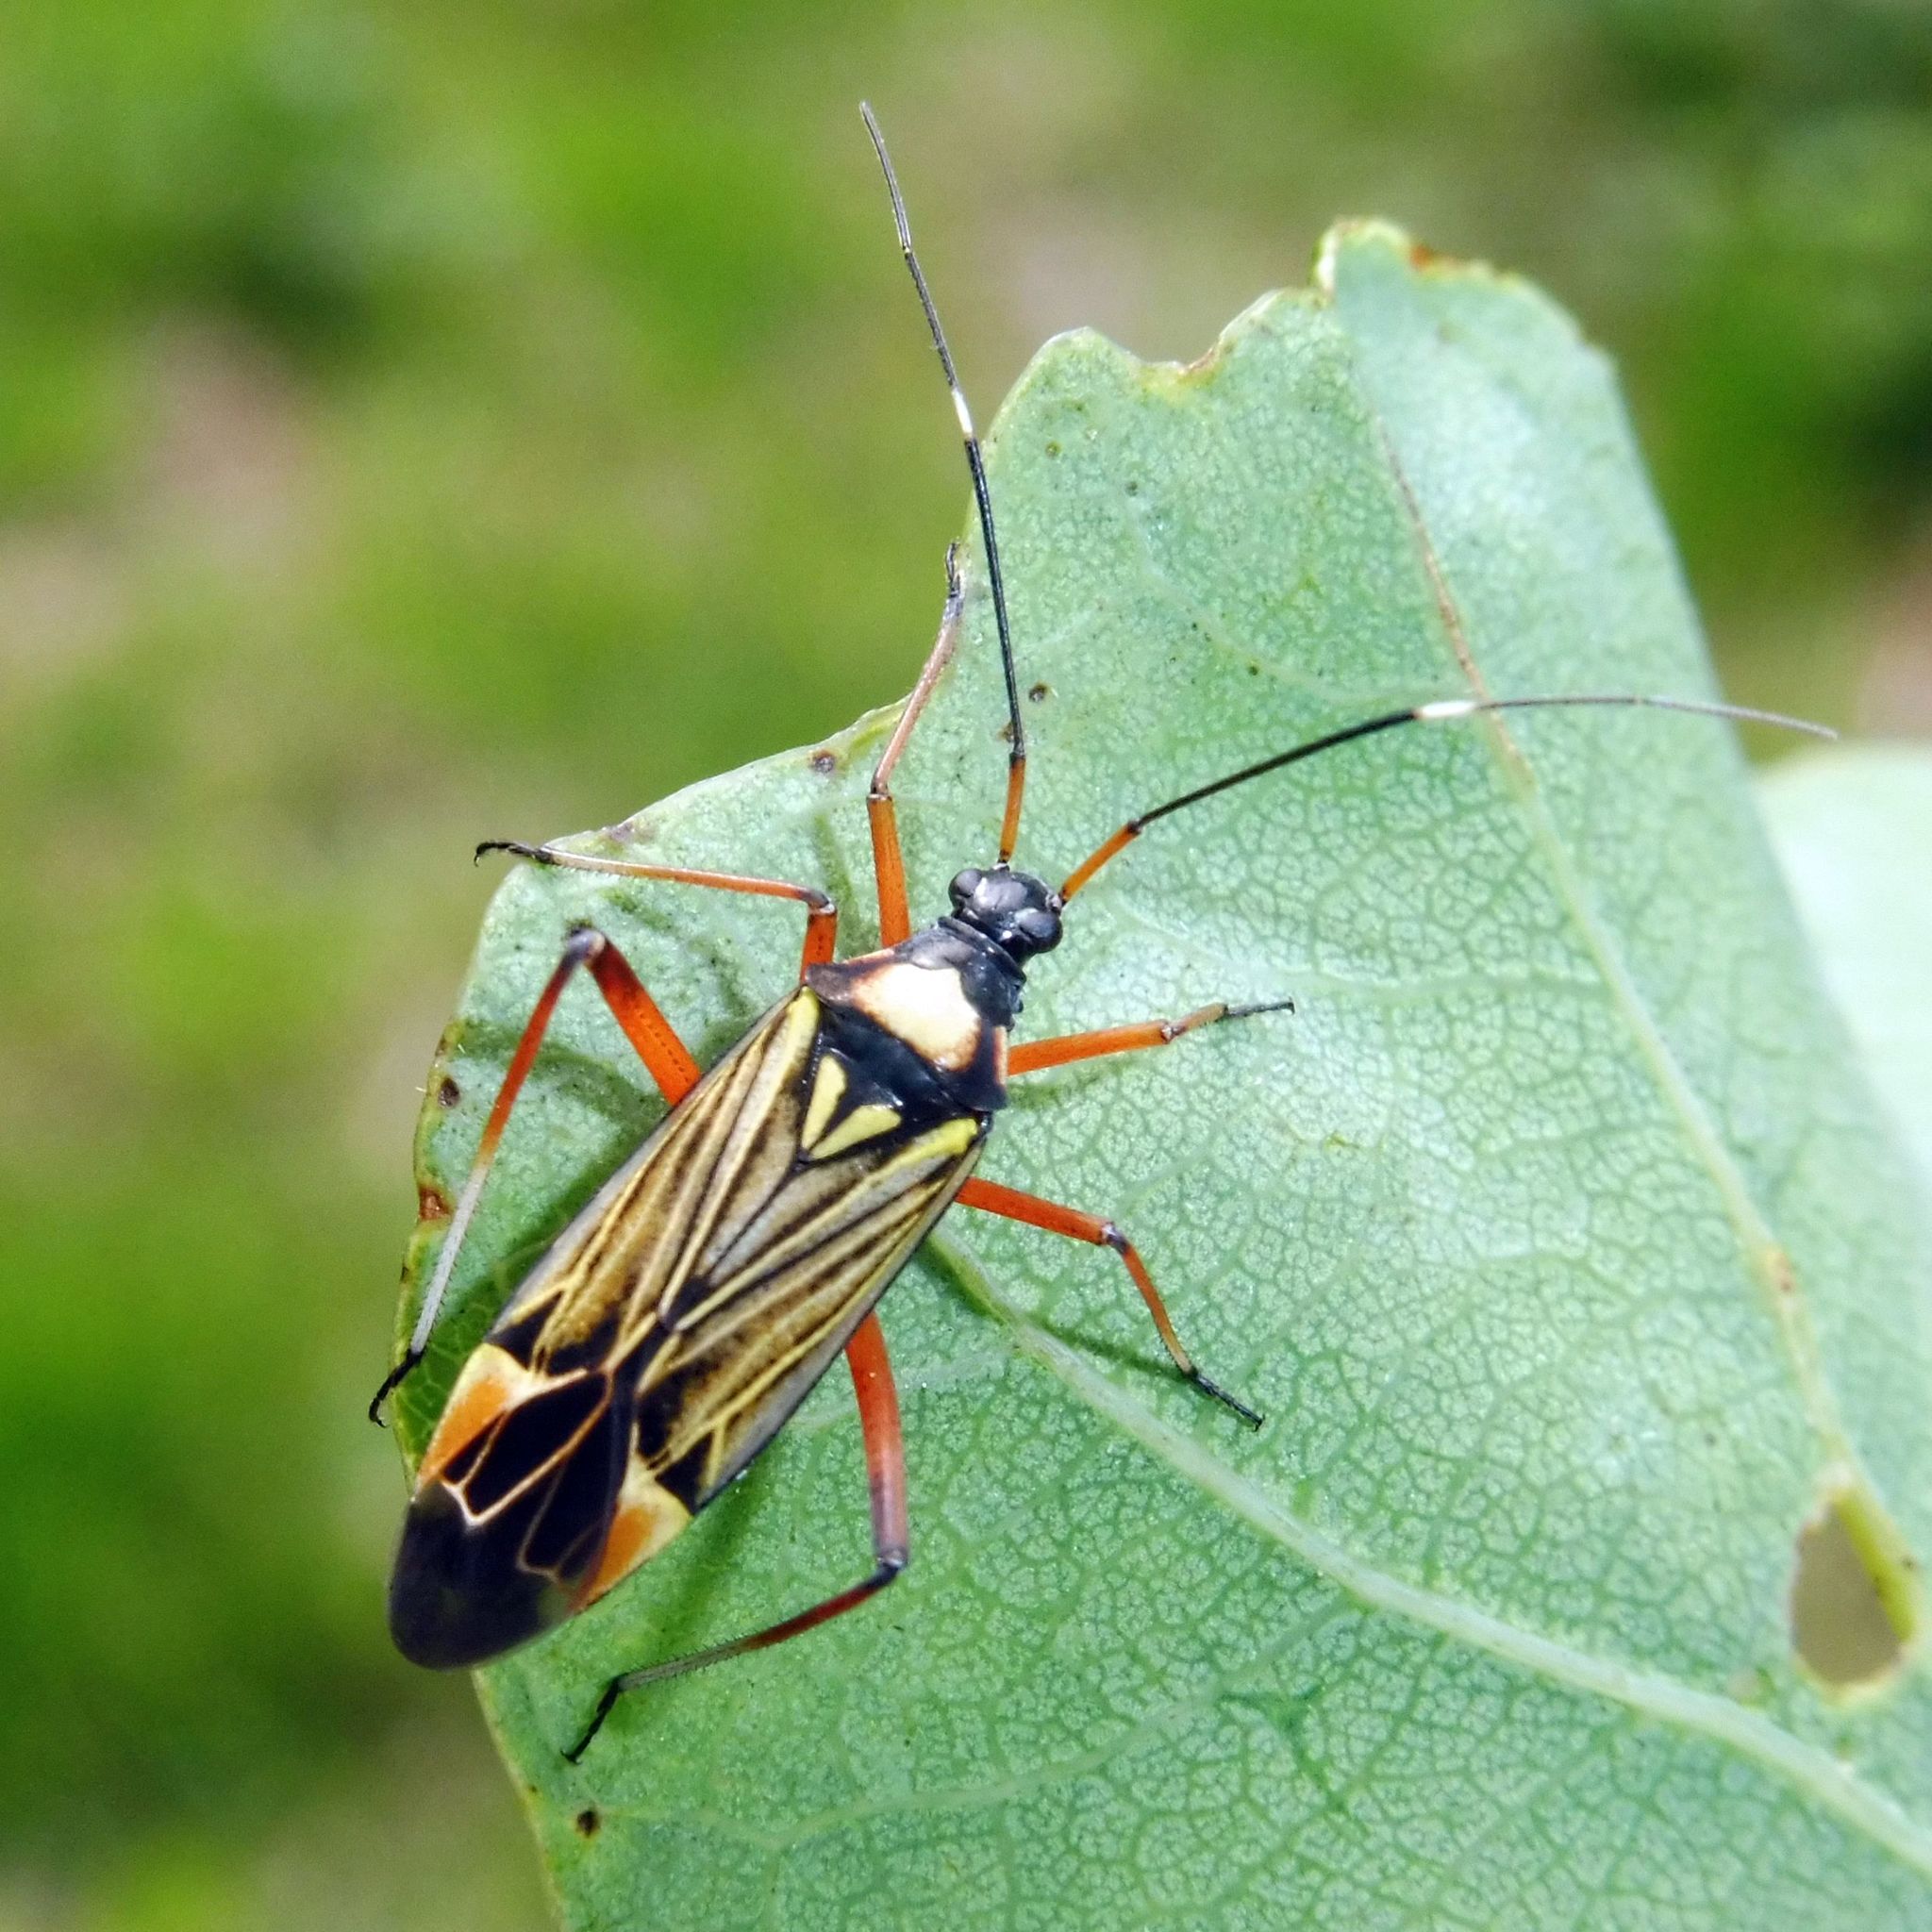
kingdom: Animalia
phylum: Arthropoda
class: Insecta
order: Hemiptera
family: Miridae
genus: Miris
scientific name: Miris striatus
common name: Fine streaked bugkin
